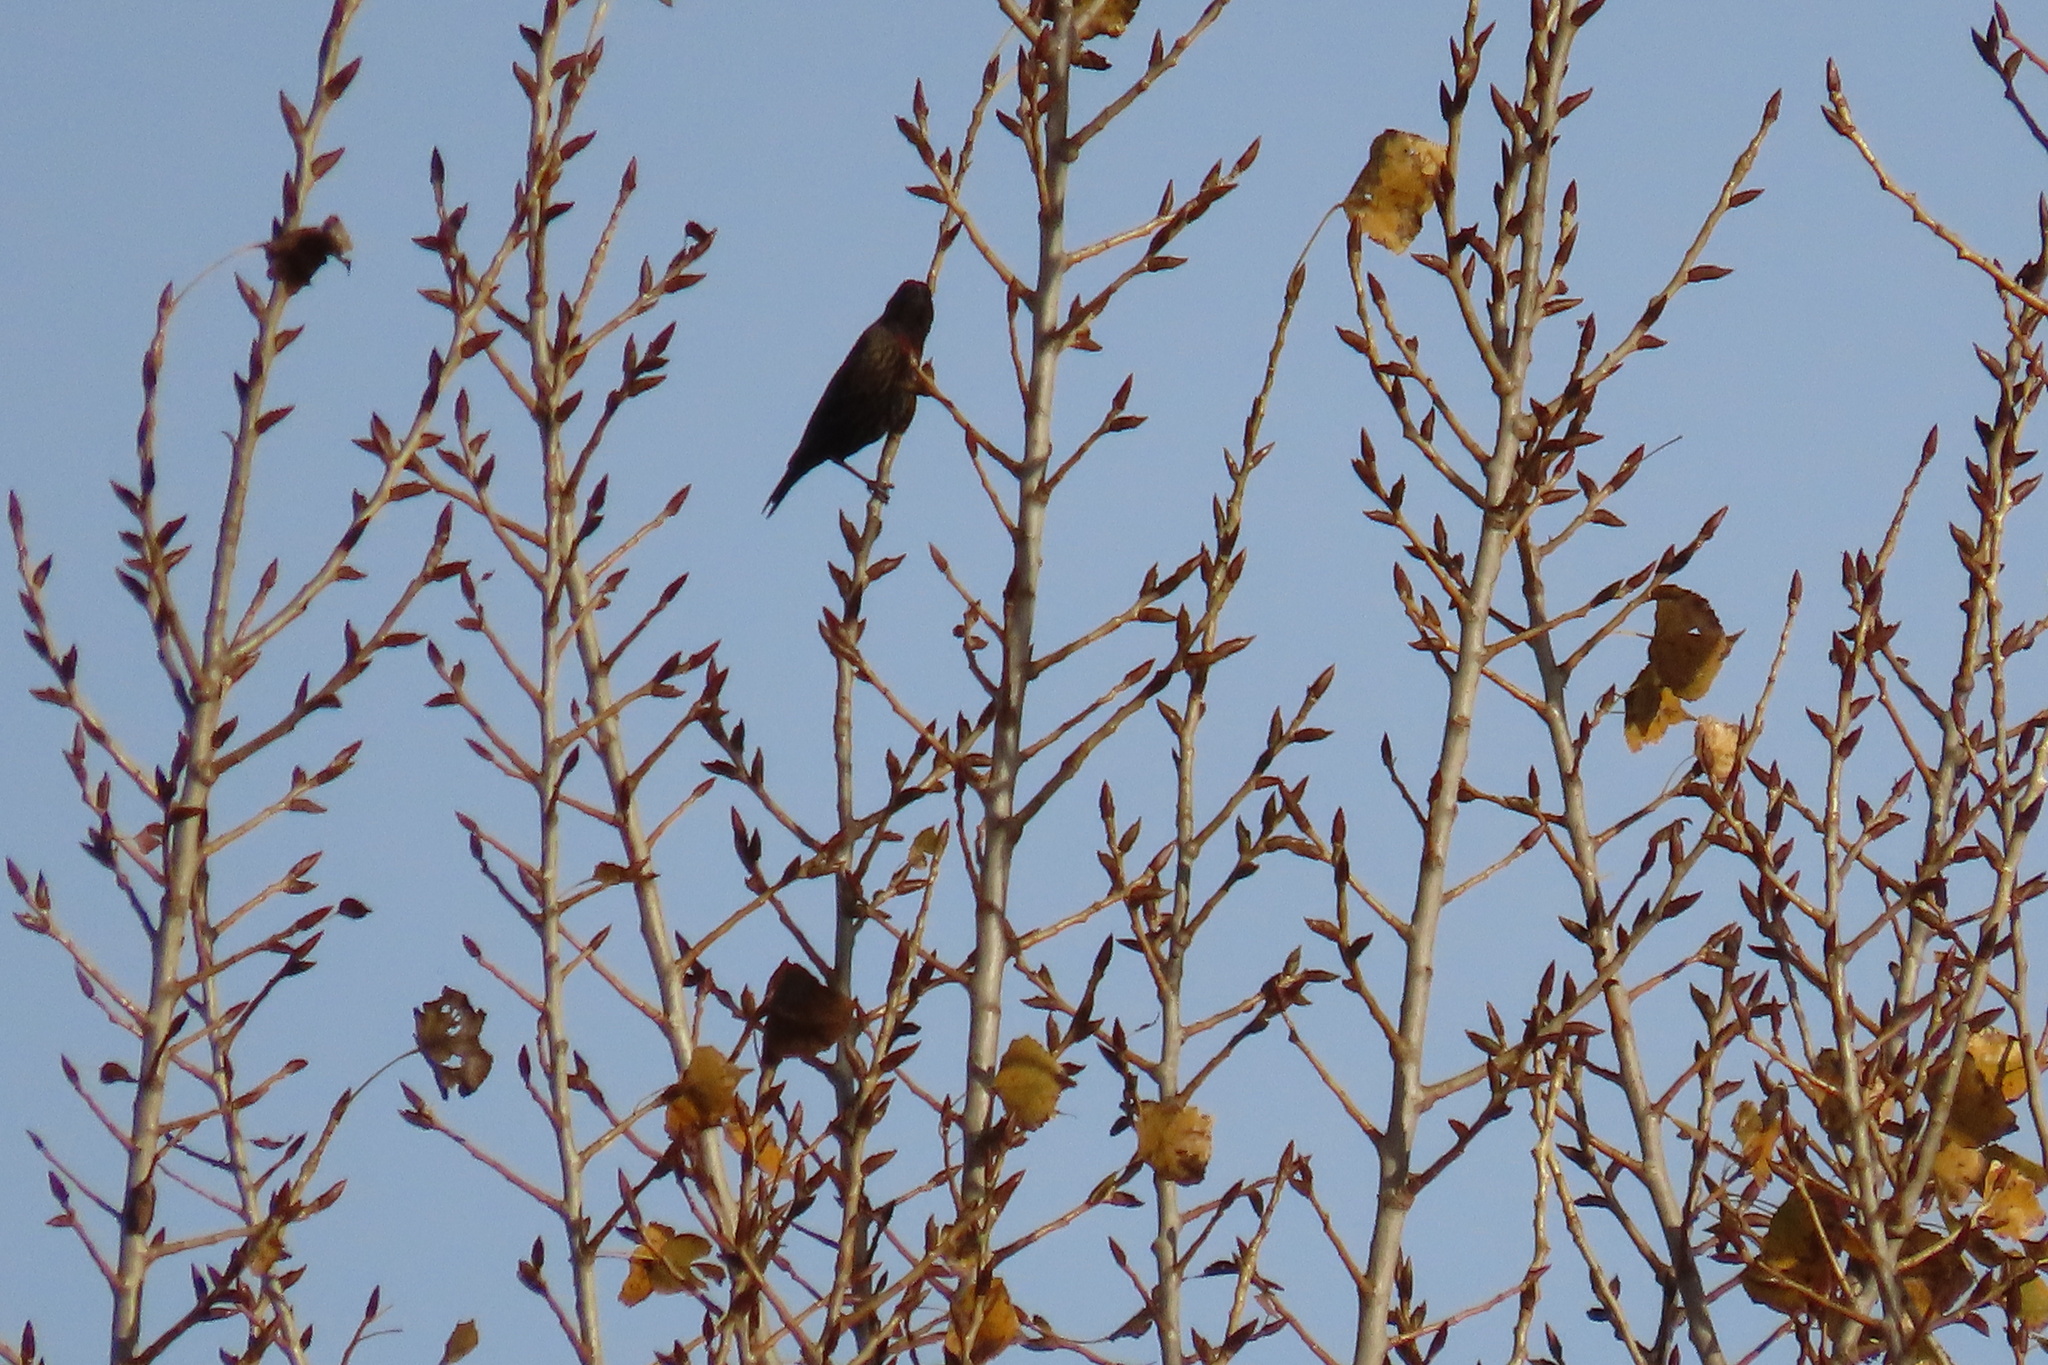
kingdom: Animalia
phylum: Chordata
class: Aves
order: Passeriformes
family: Icteridae
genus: Agelaius
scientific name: Agelaius phoeniceus
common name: Red-winged blackbird
